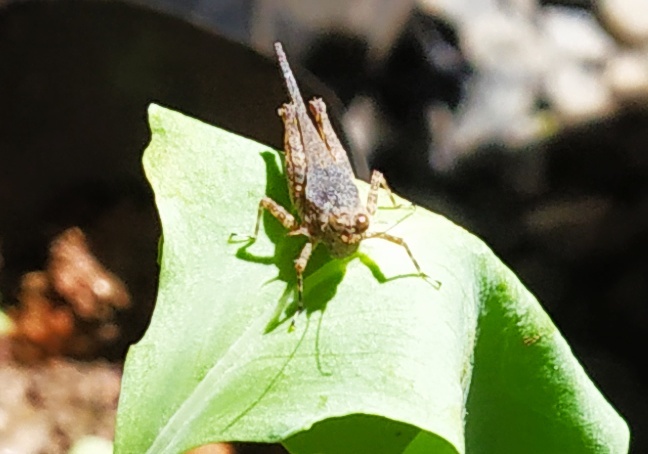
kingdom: Animalia
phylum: Arthropoda
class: Insecta
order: Orthoptera
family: Tetrigidae
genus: Eucriotettix
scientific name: Eucriotettix spinilobus
